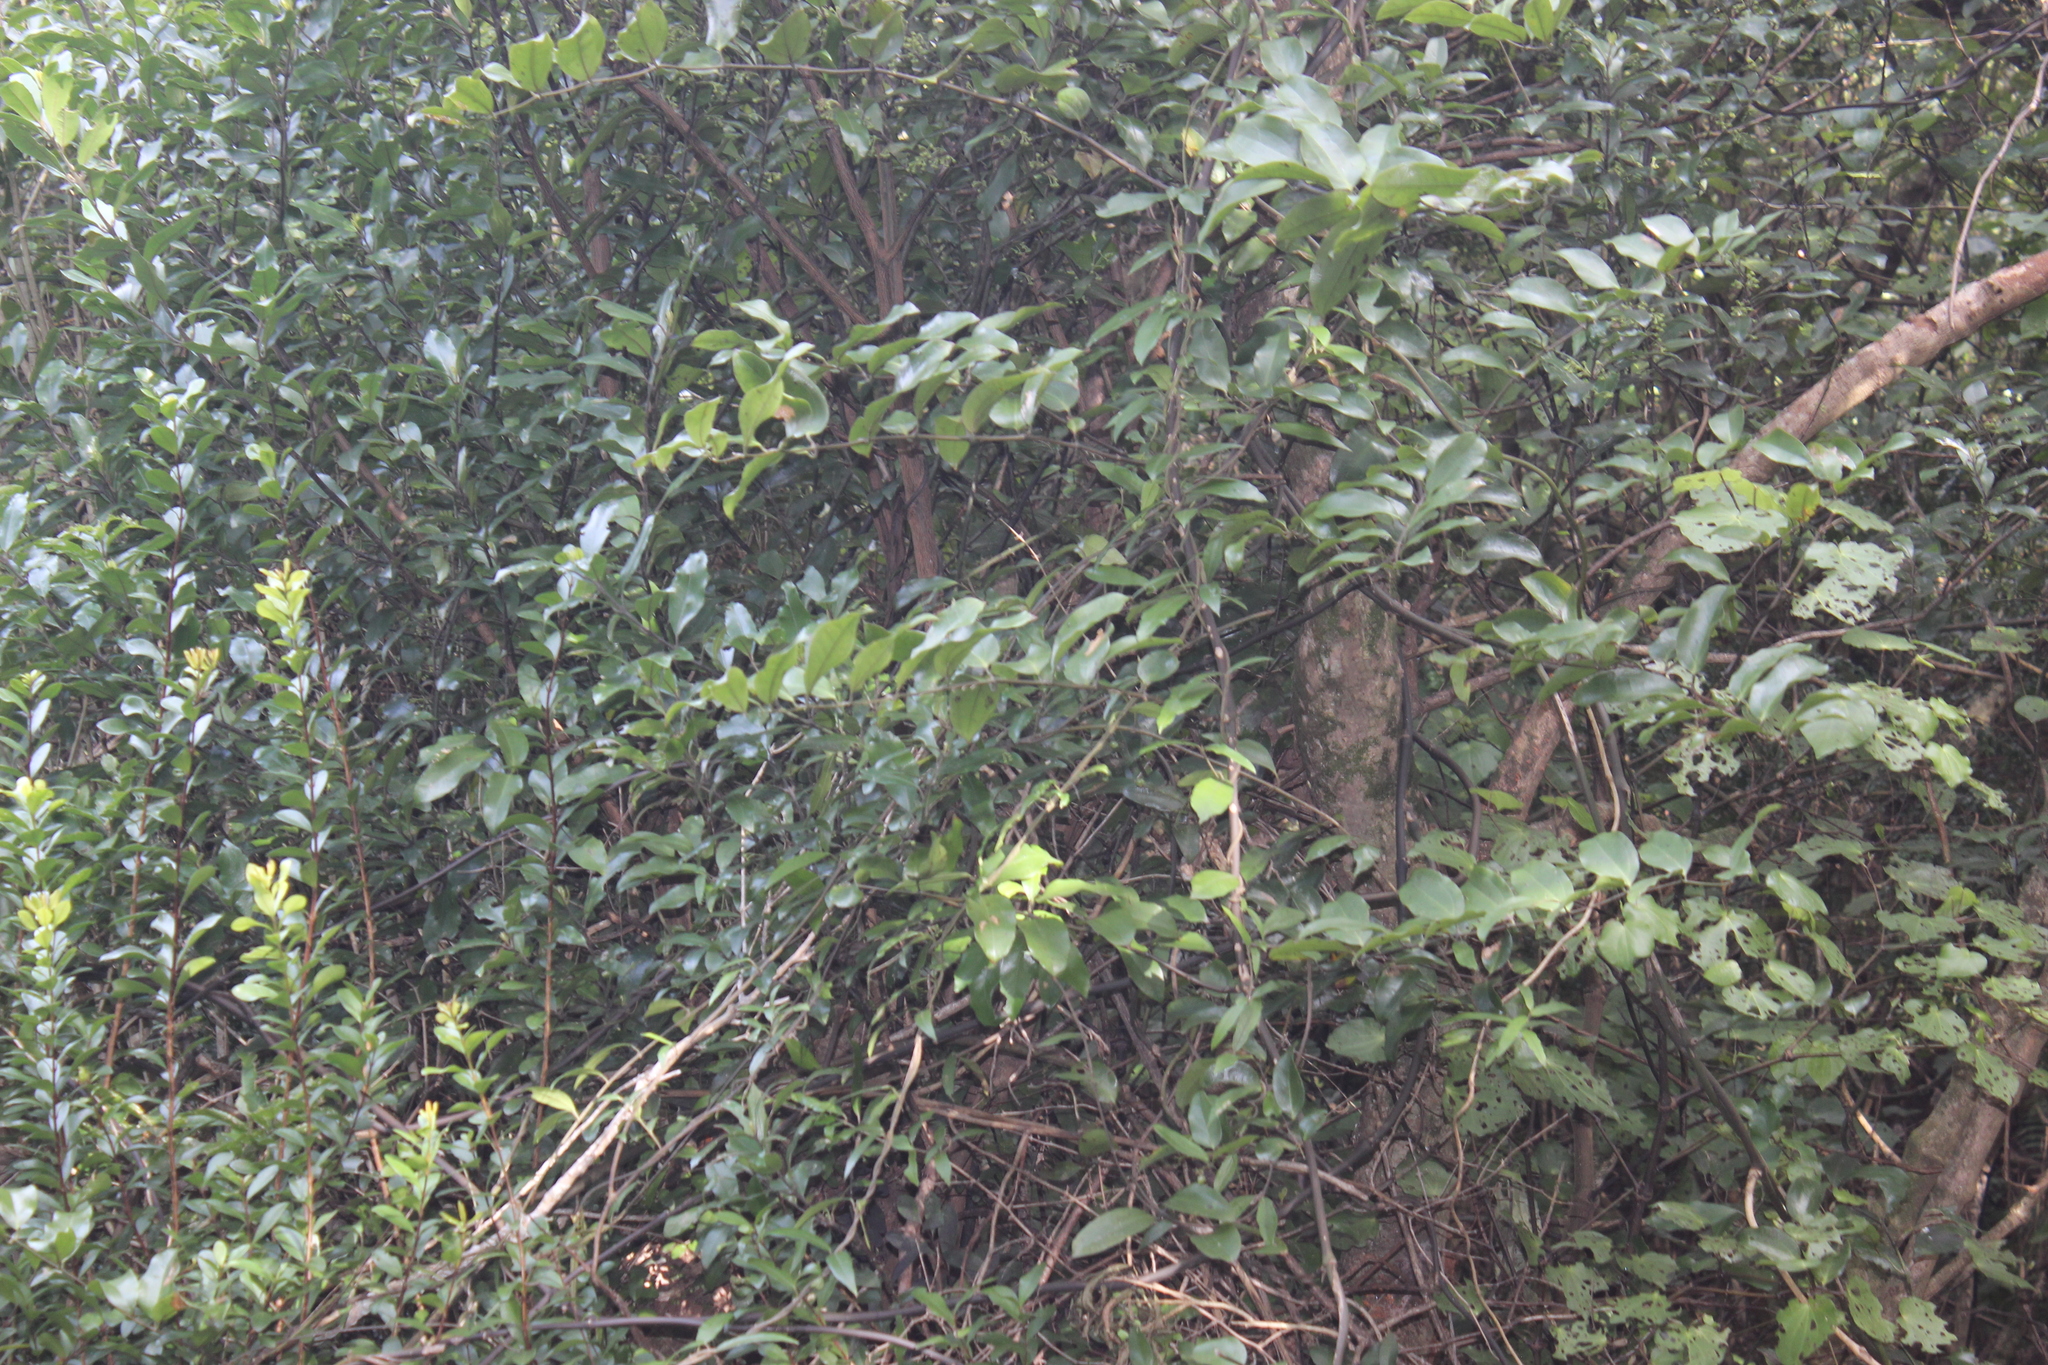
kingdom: Plantae
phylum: Tracheophyta
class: Liliopsida
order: Liliales
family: Ripogonaceae
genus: Ripogonum
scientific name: Ripogonum scandens
